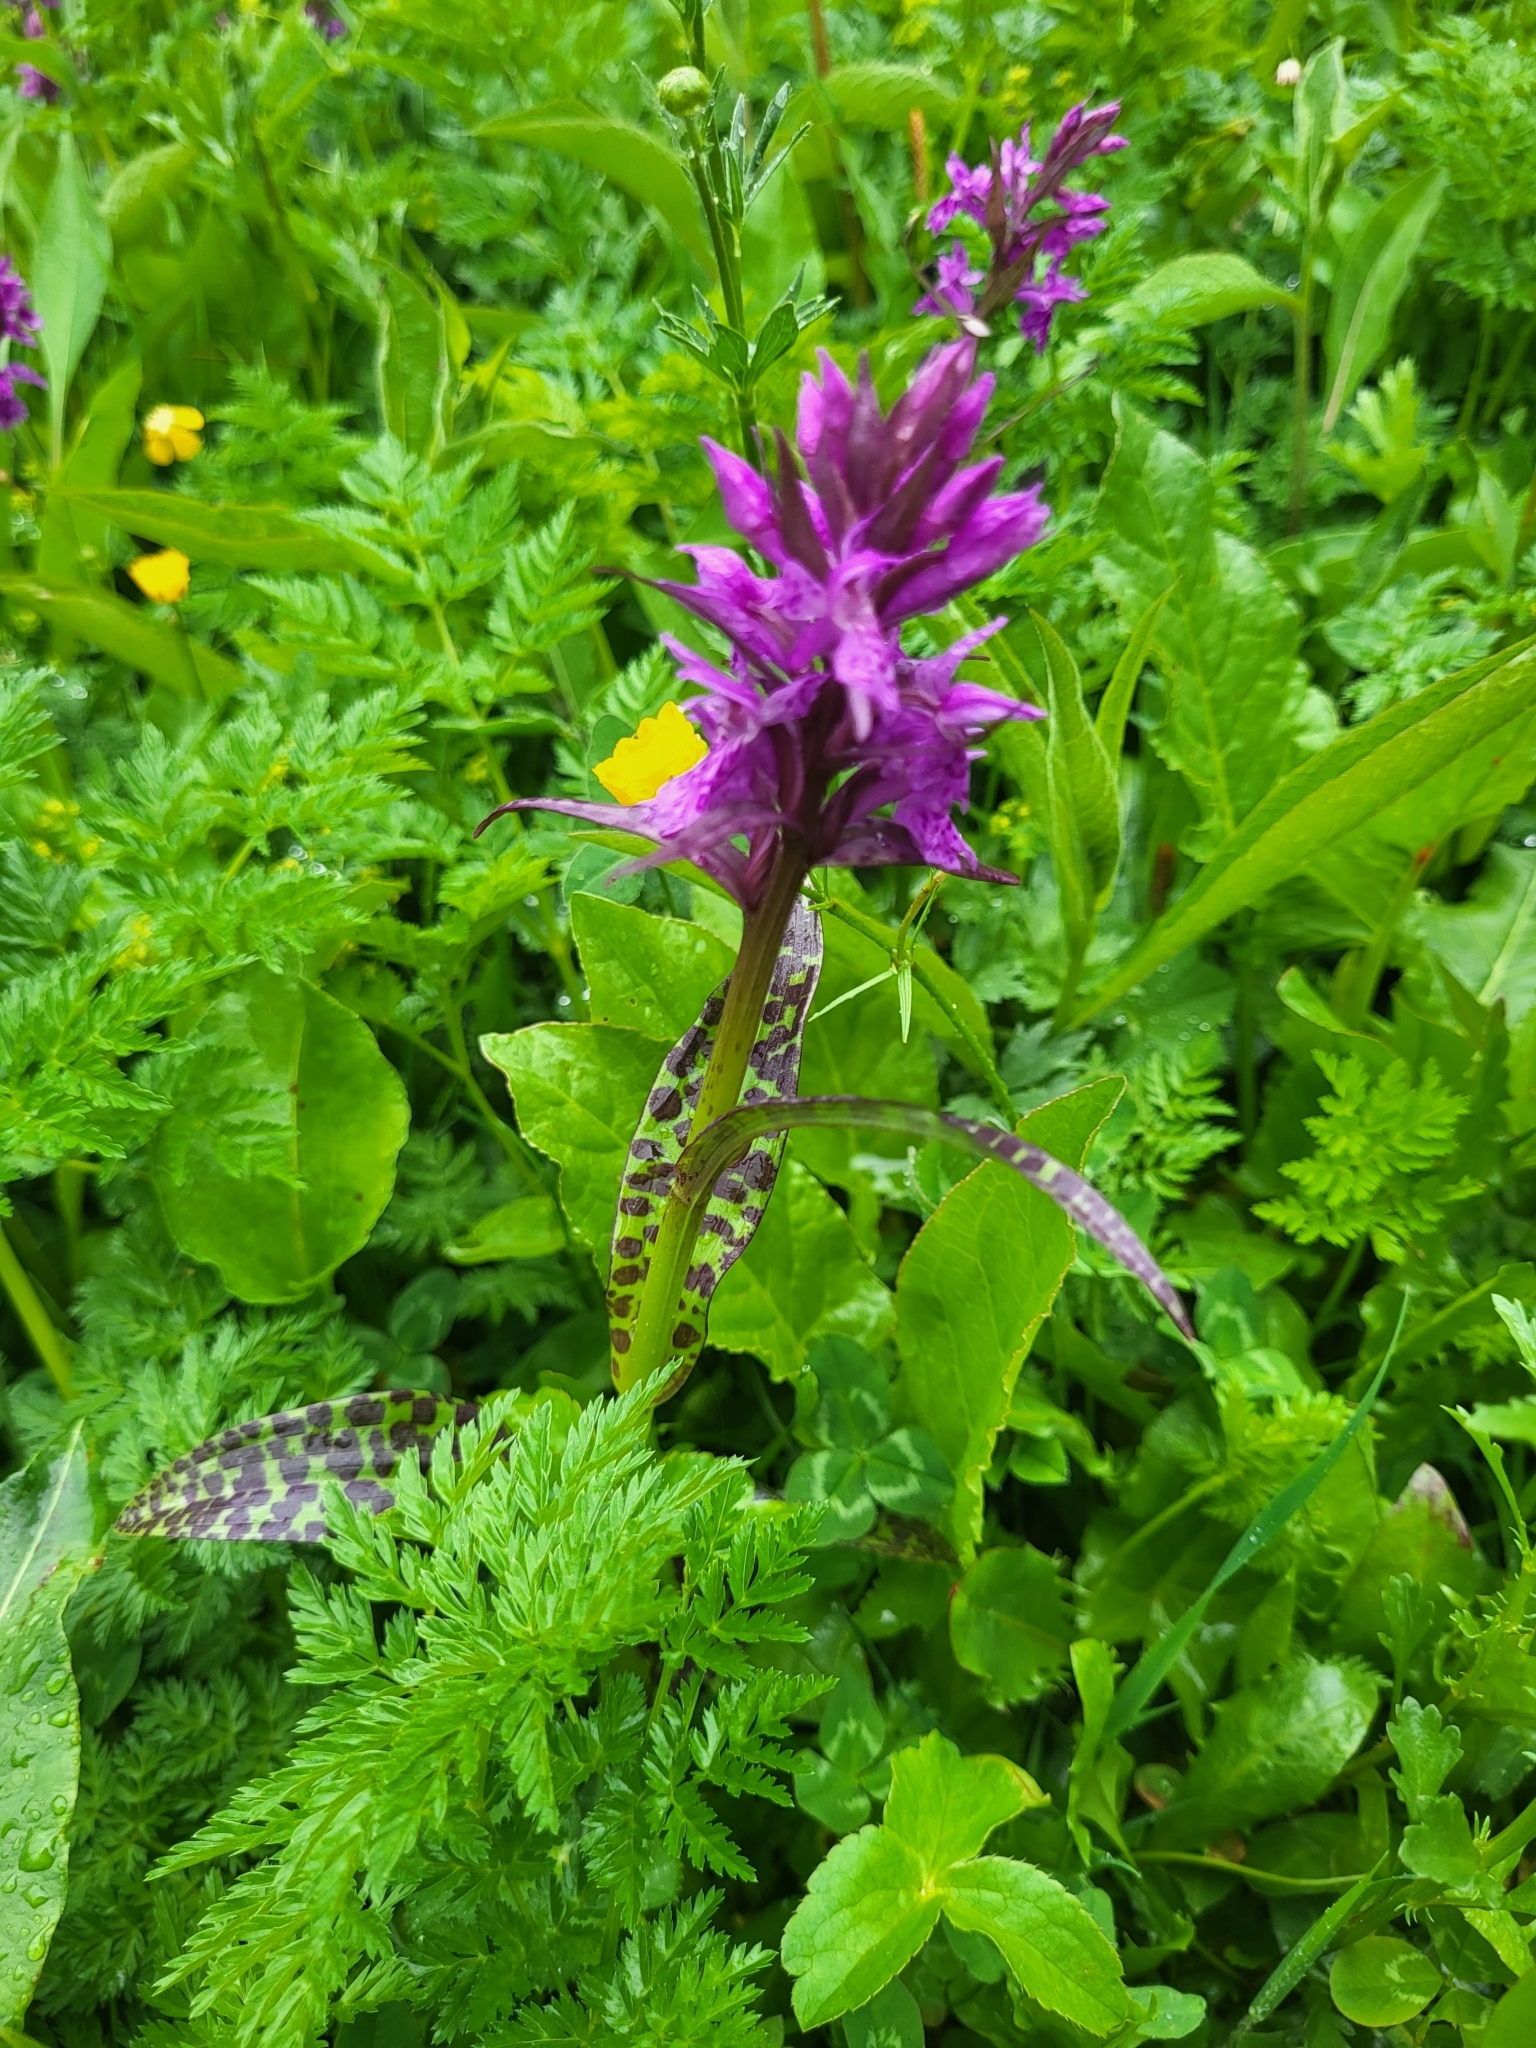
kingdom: Plantae
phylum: Tracheophyta
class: Liliopsida
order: Asparagales
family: Orchidaceae
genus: Dactylorhiza
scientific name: Dactylorhiza euxina
